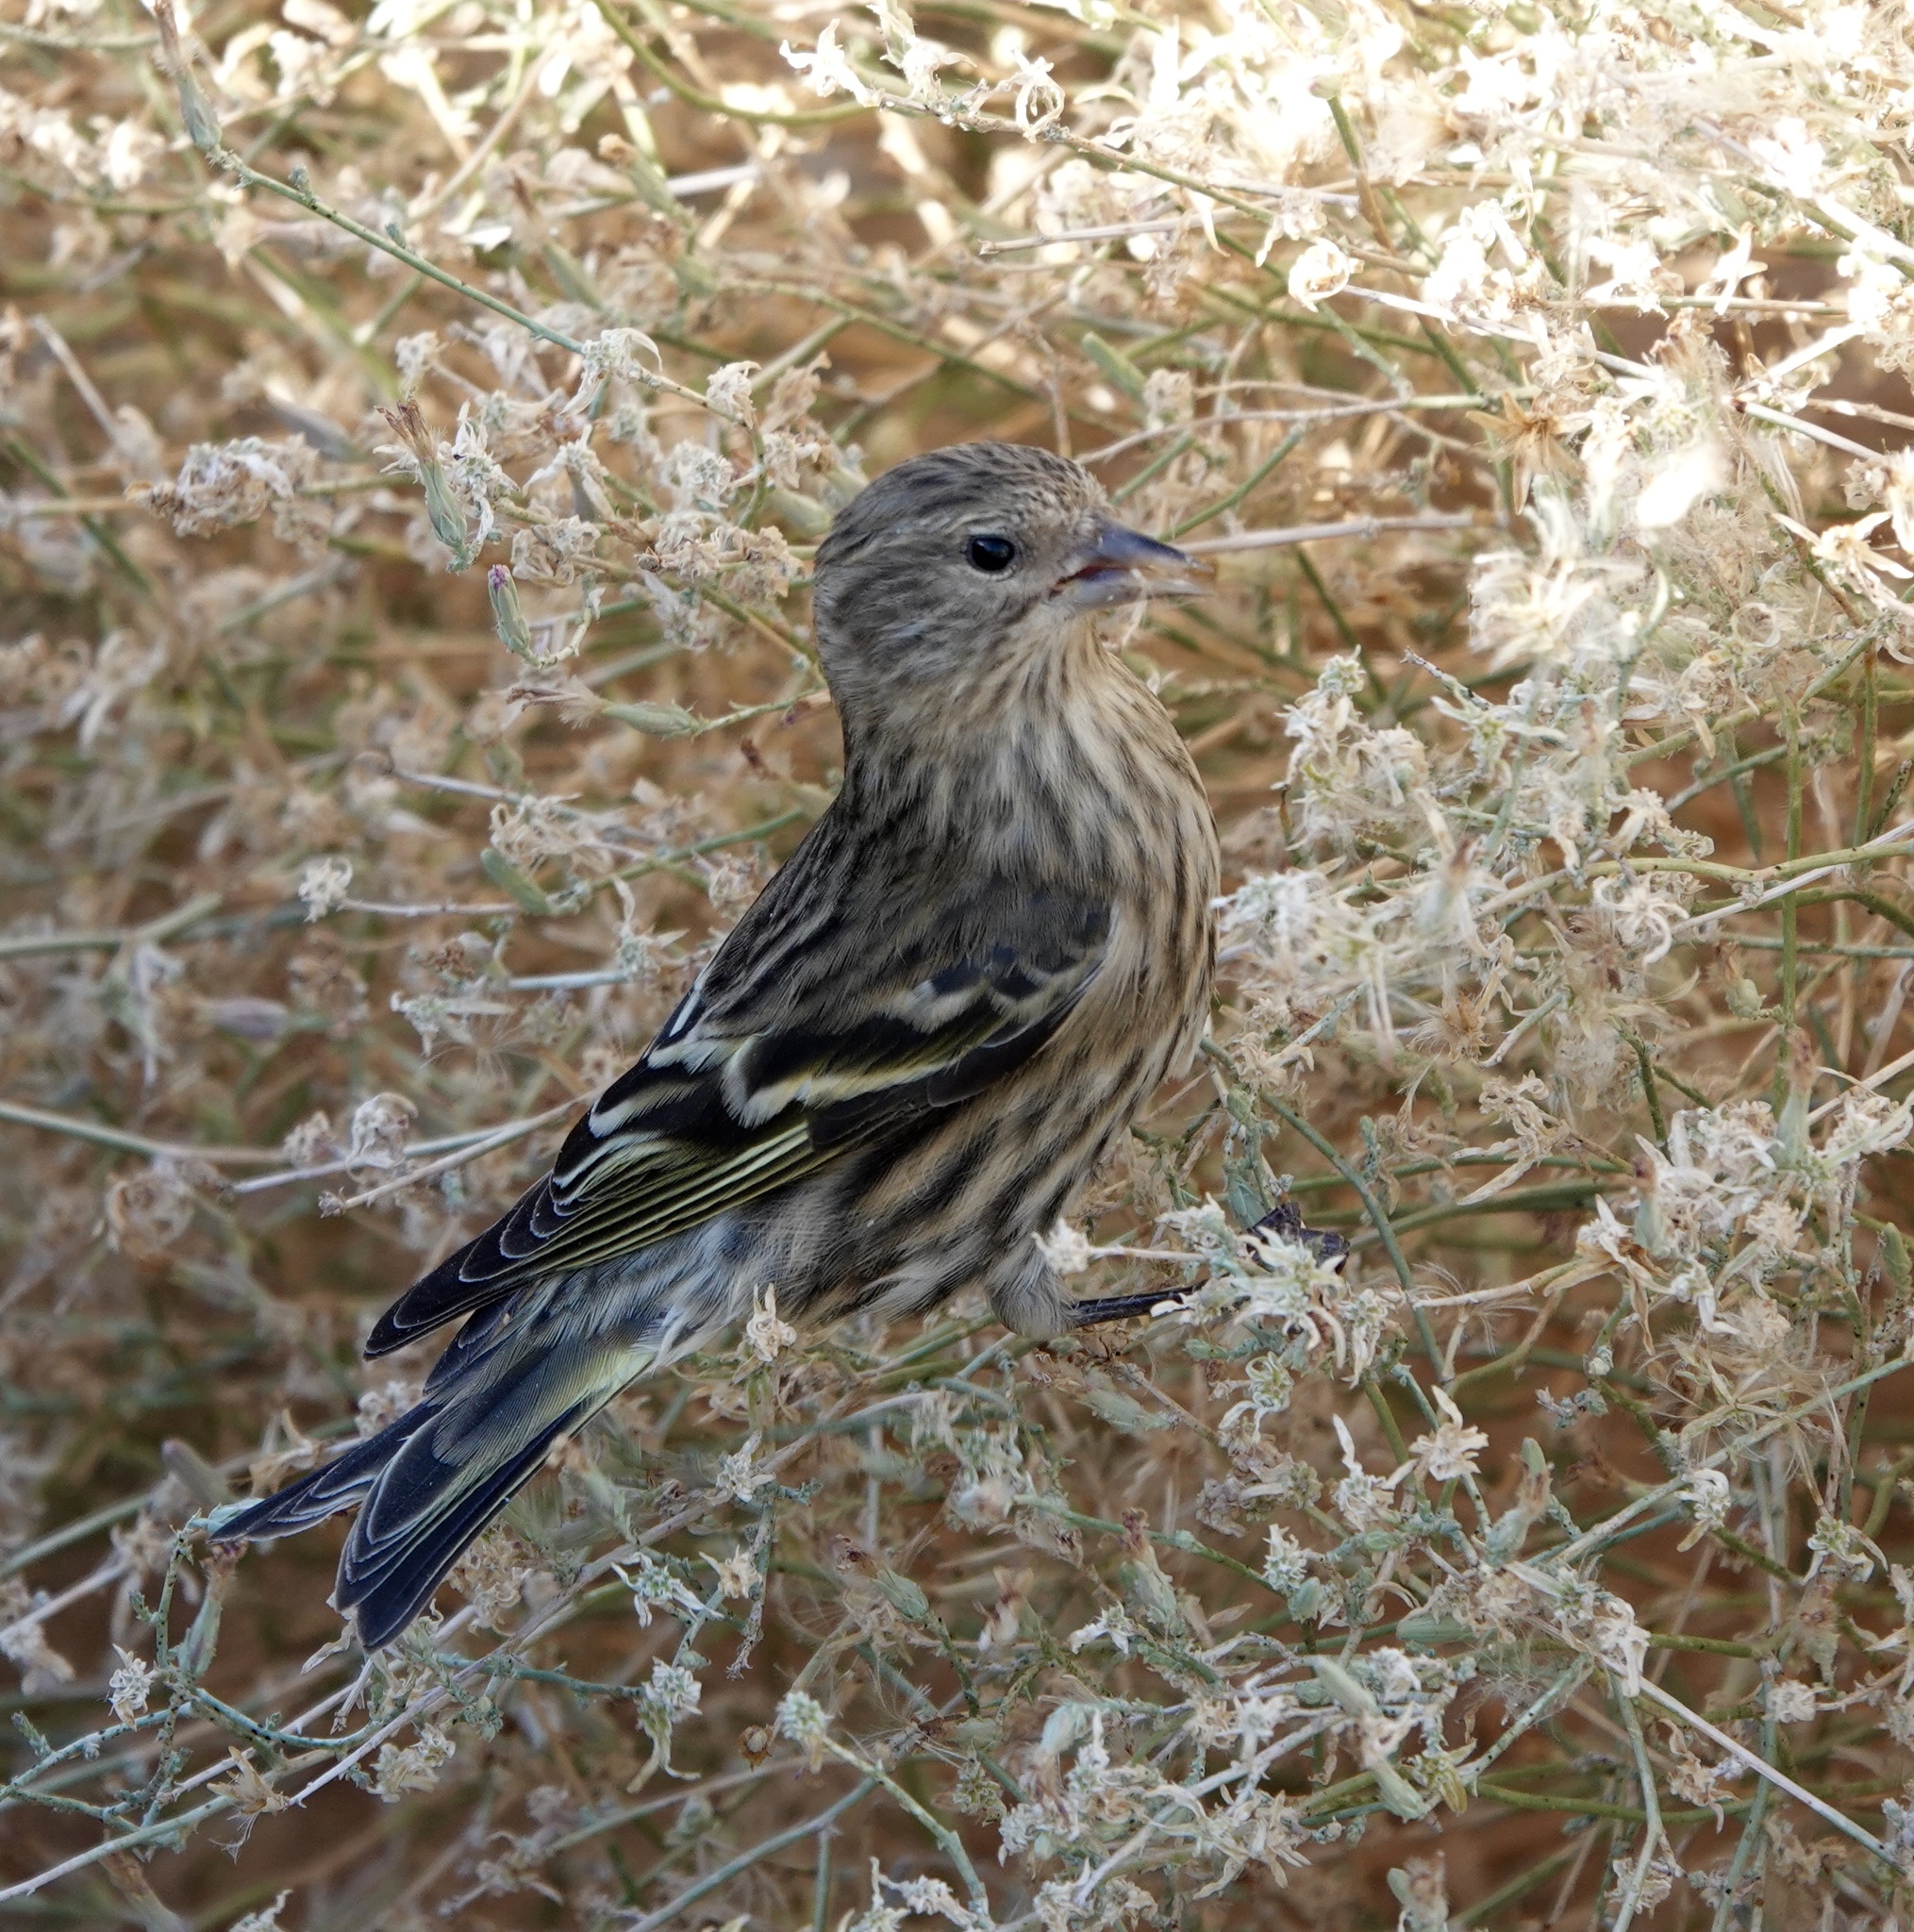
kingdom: Animalia
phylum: Chordata
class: Aves
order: Passeriformes
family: Fringillidae
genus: Spinus
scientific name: Spinus pinus
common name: Pine siskin
